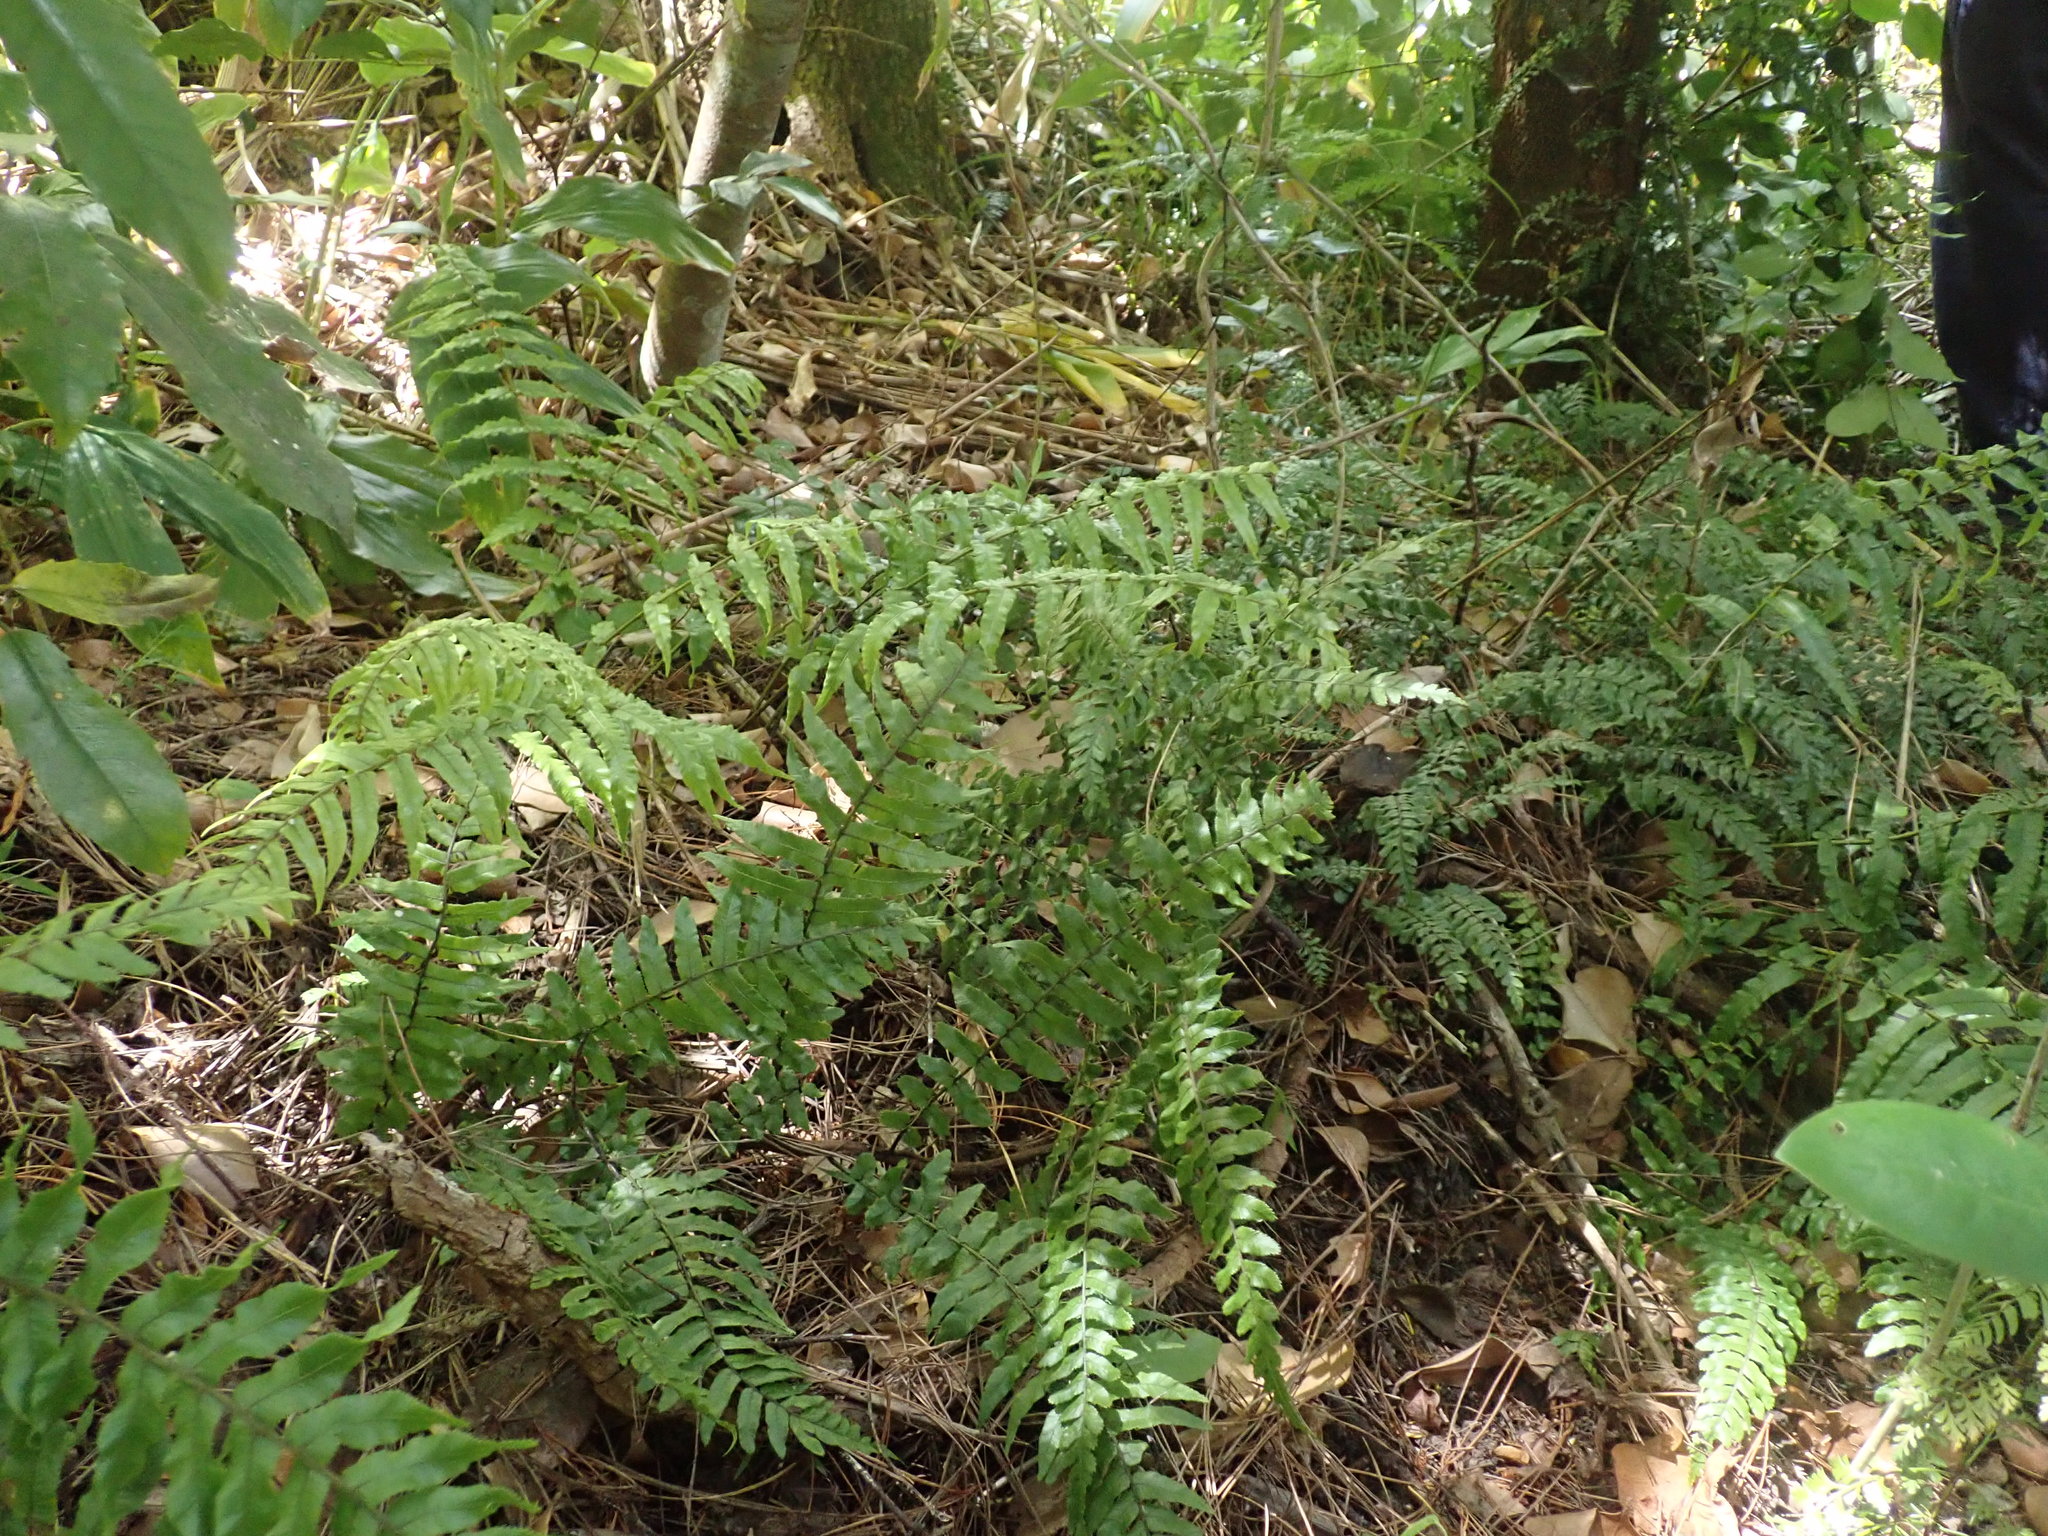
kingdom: Plantae
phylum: Tracheophyta
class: Liliopsida
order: Zingiberales
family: Zingiberaceae
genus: Hedychium
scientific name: Hedychium gardnerianum
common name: Himalayan ginger
